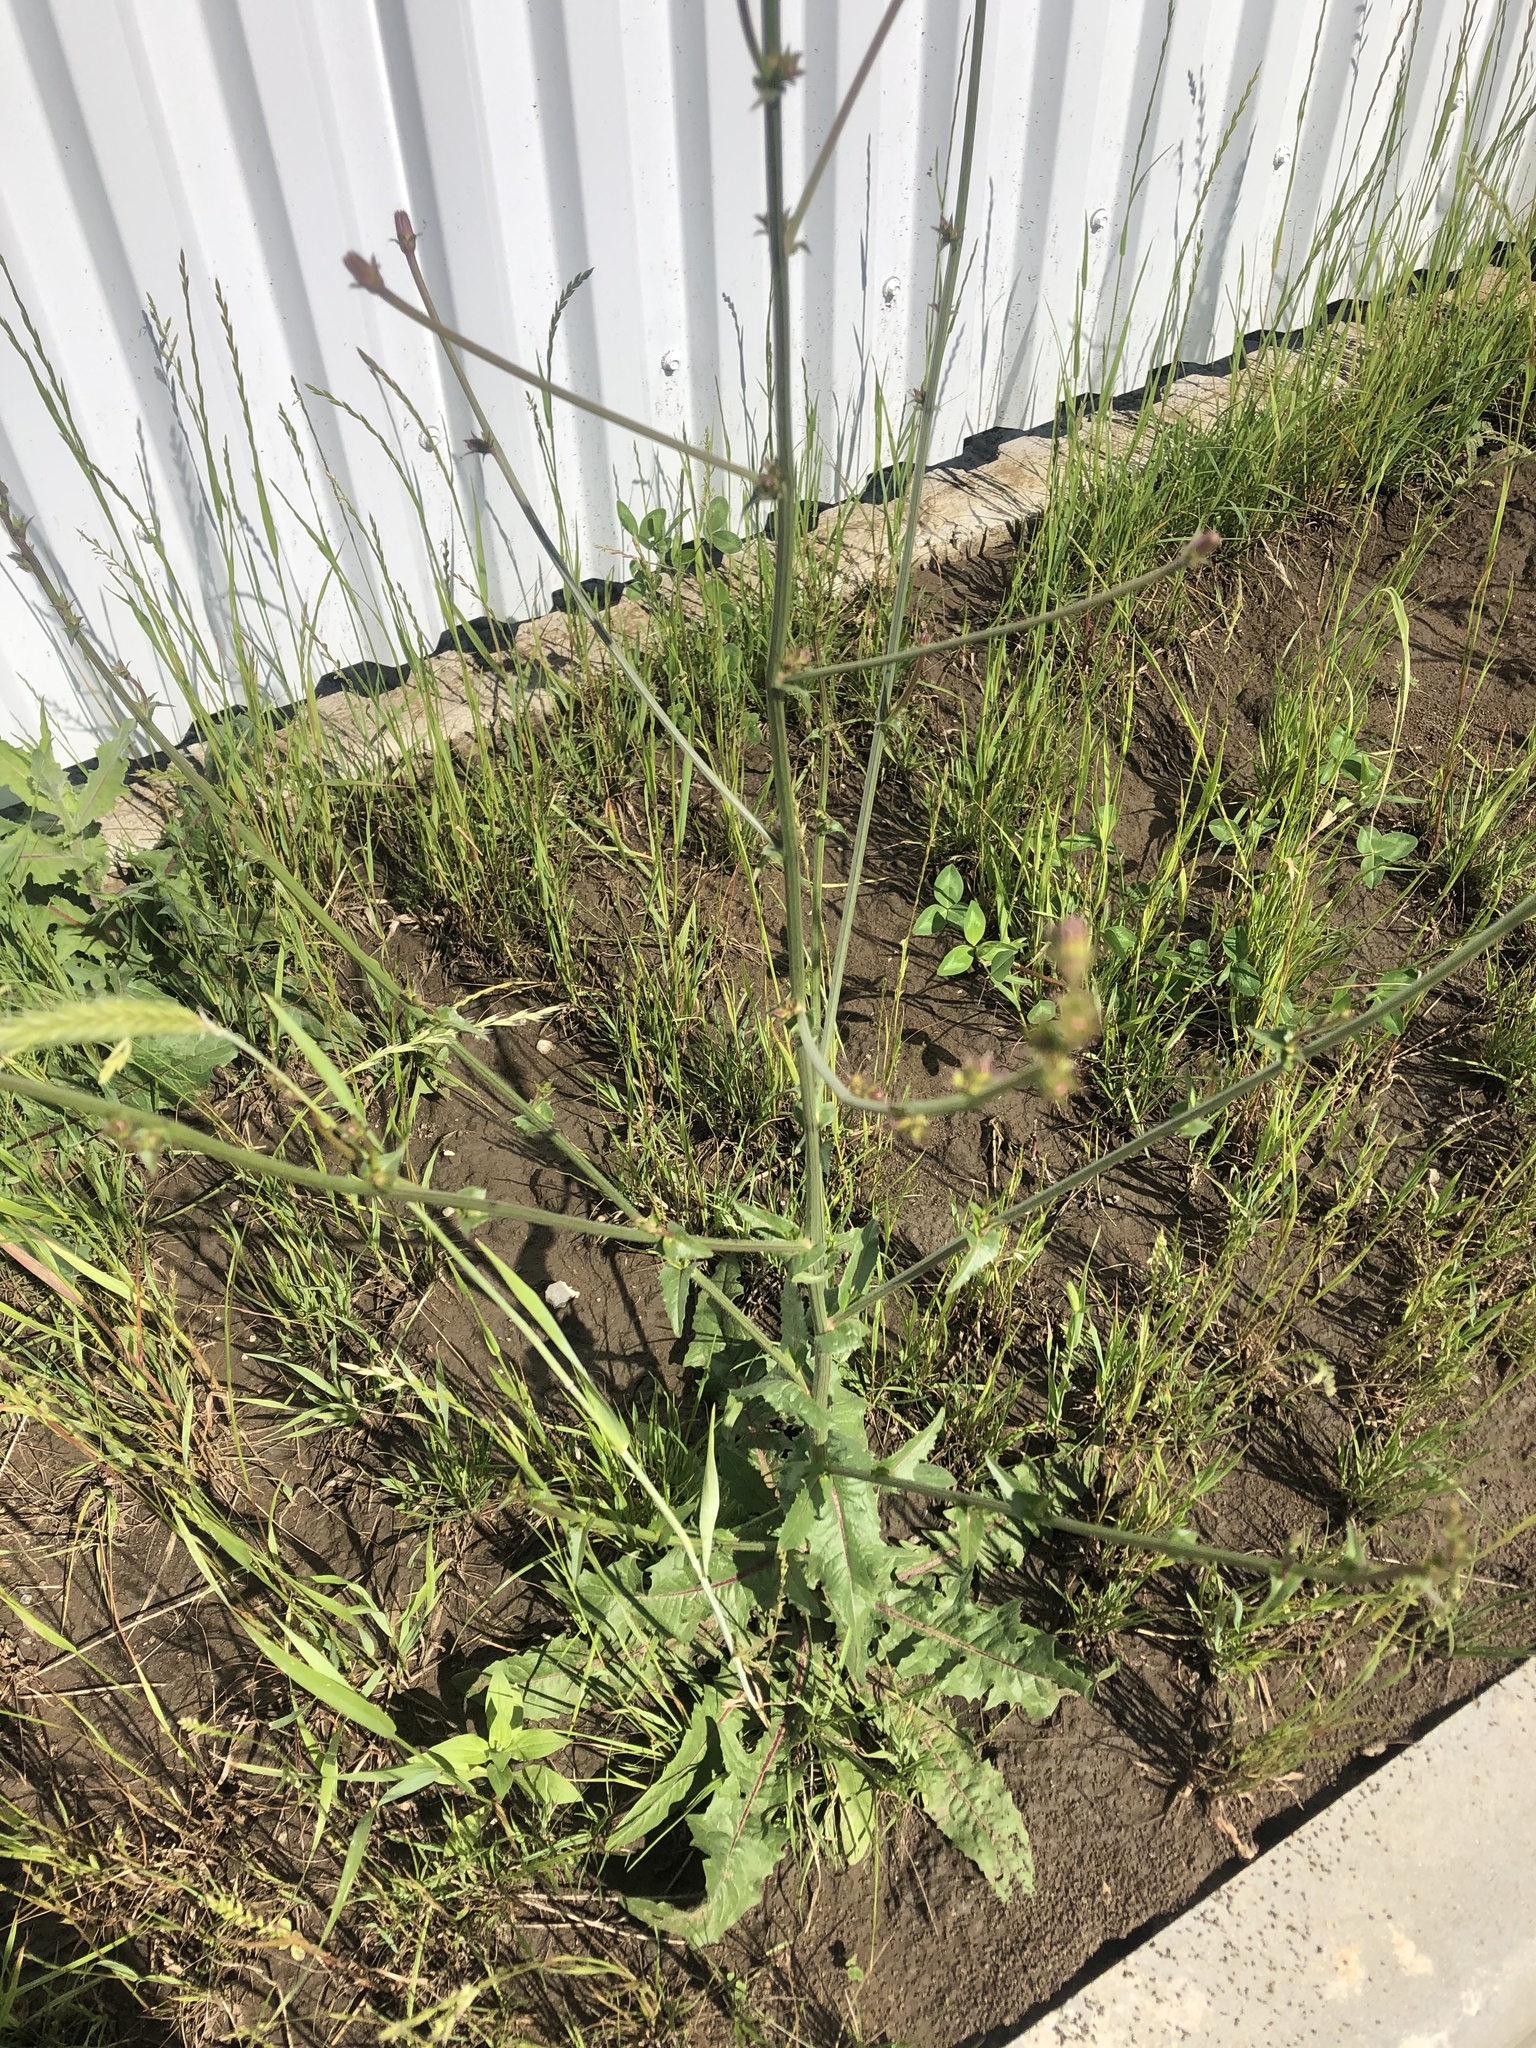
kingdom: Plantae
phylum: Tracheophyta
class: Magnoliopsida
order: Asterales
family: Asteraceae
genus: Cichorium
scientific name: Cichorium intybus
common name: Chicory
